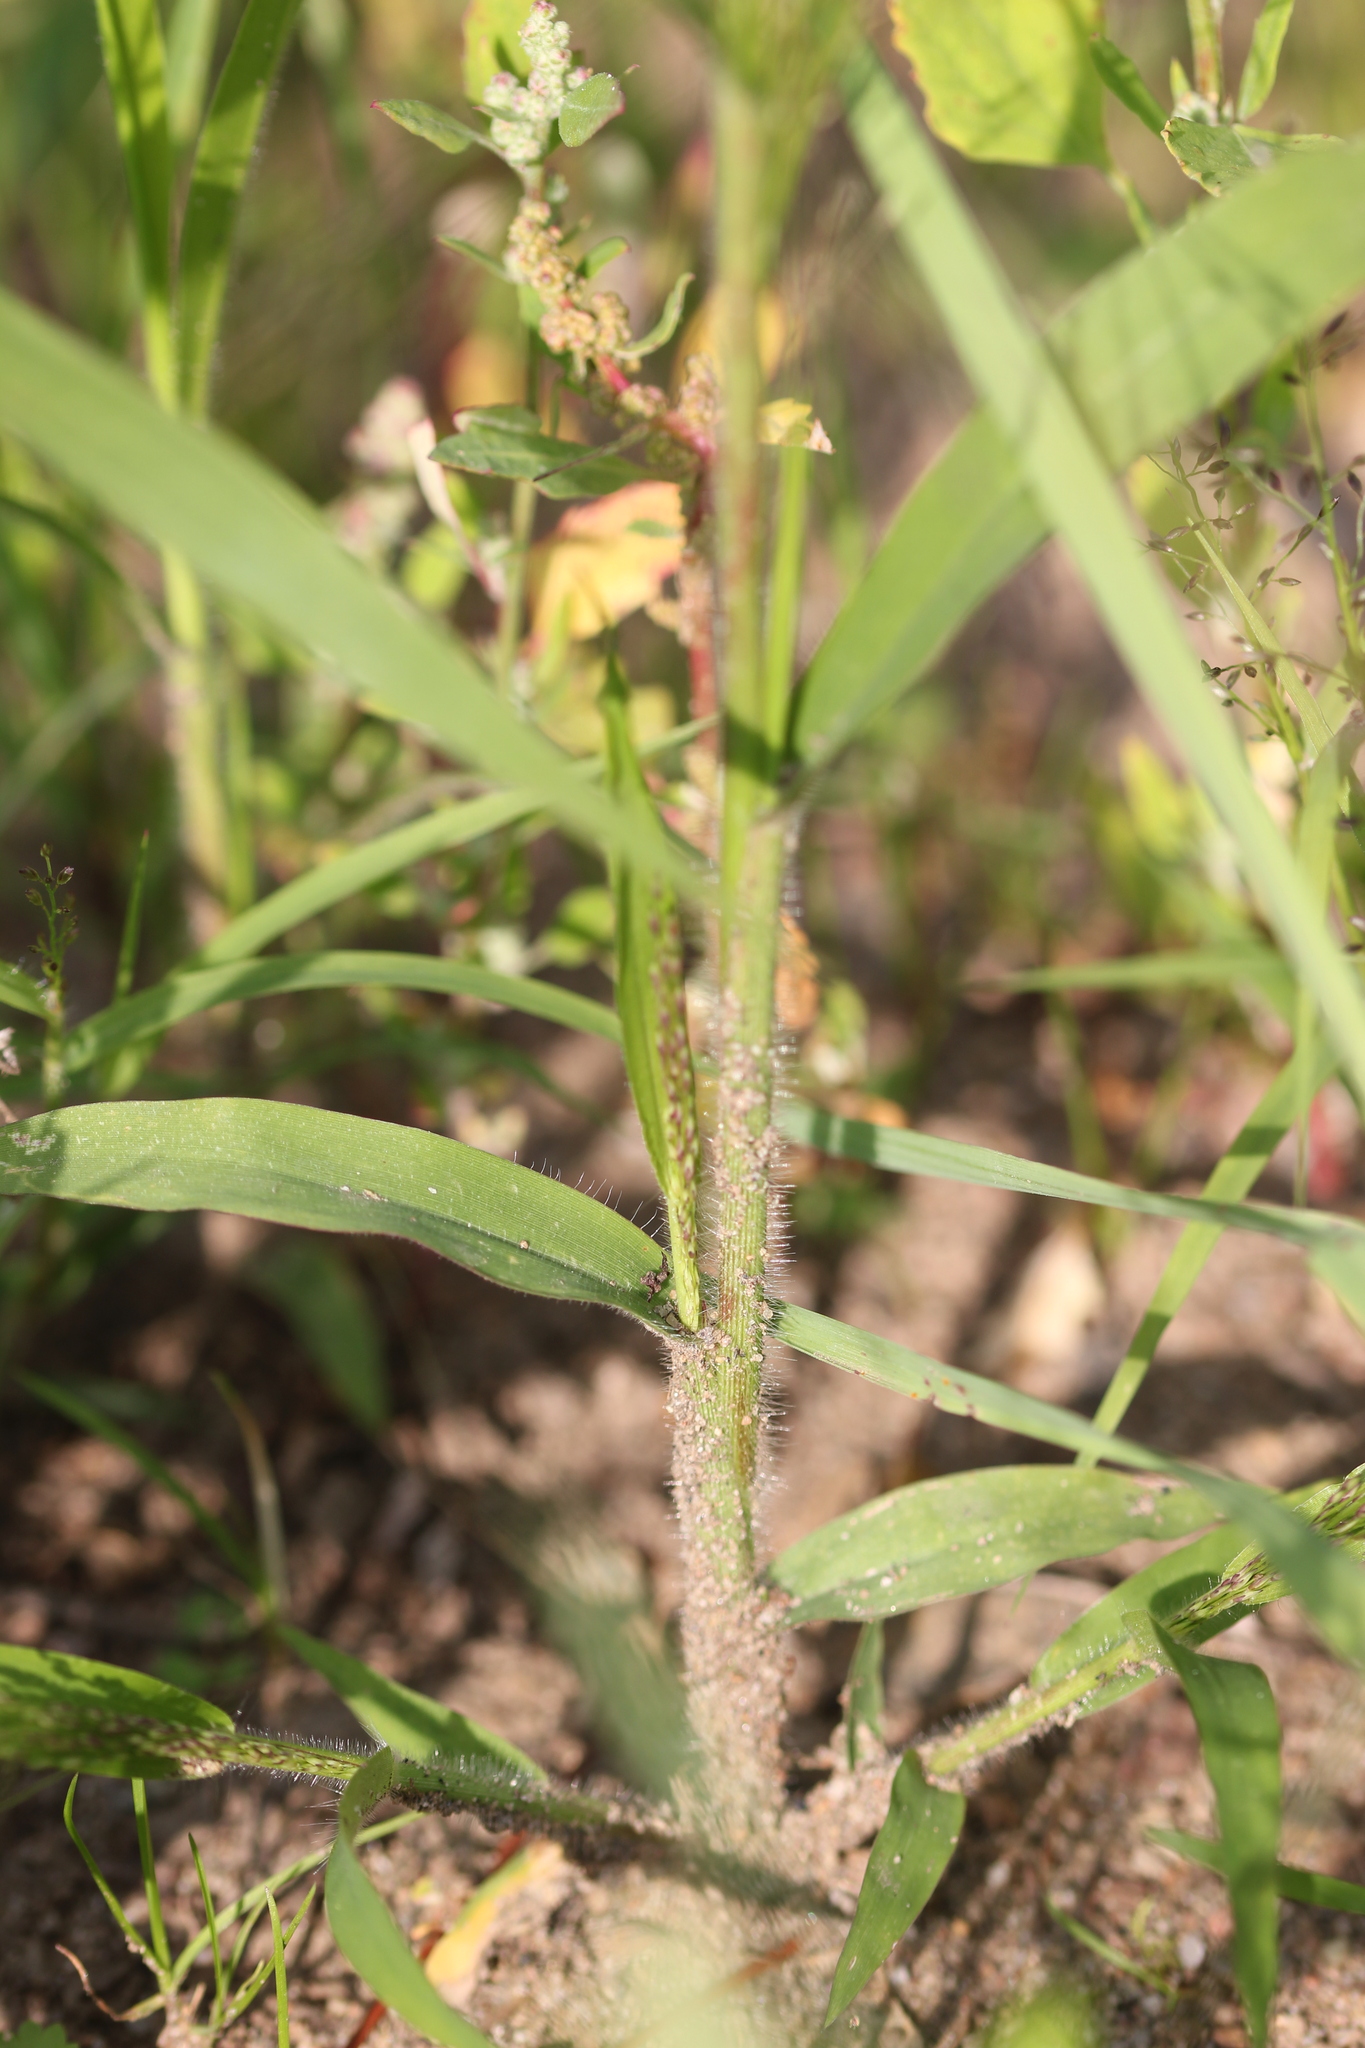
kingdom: Plantae
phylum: Tracheophyta
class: Liliopsida
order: Poales
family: Poaceae
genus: Panicum
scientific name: Panicum capillare
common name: Witch-grass
